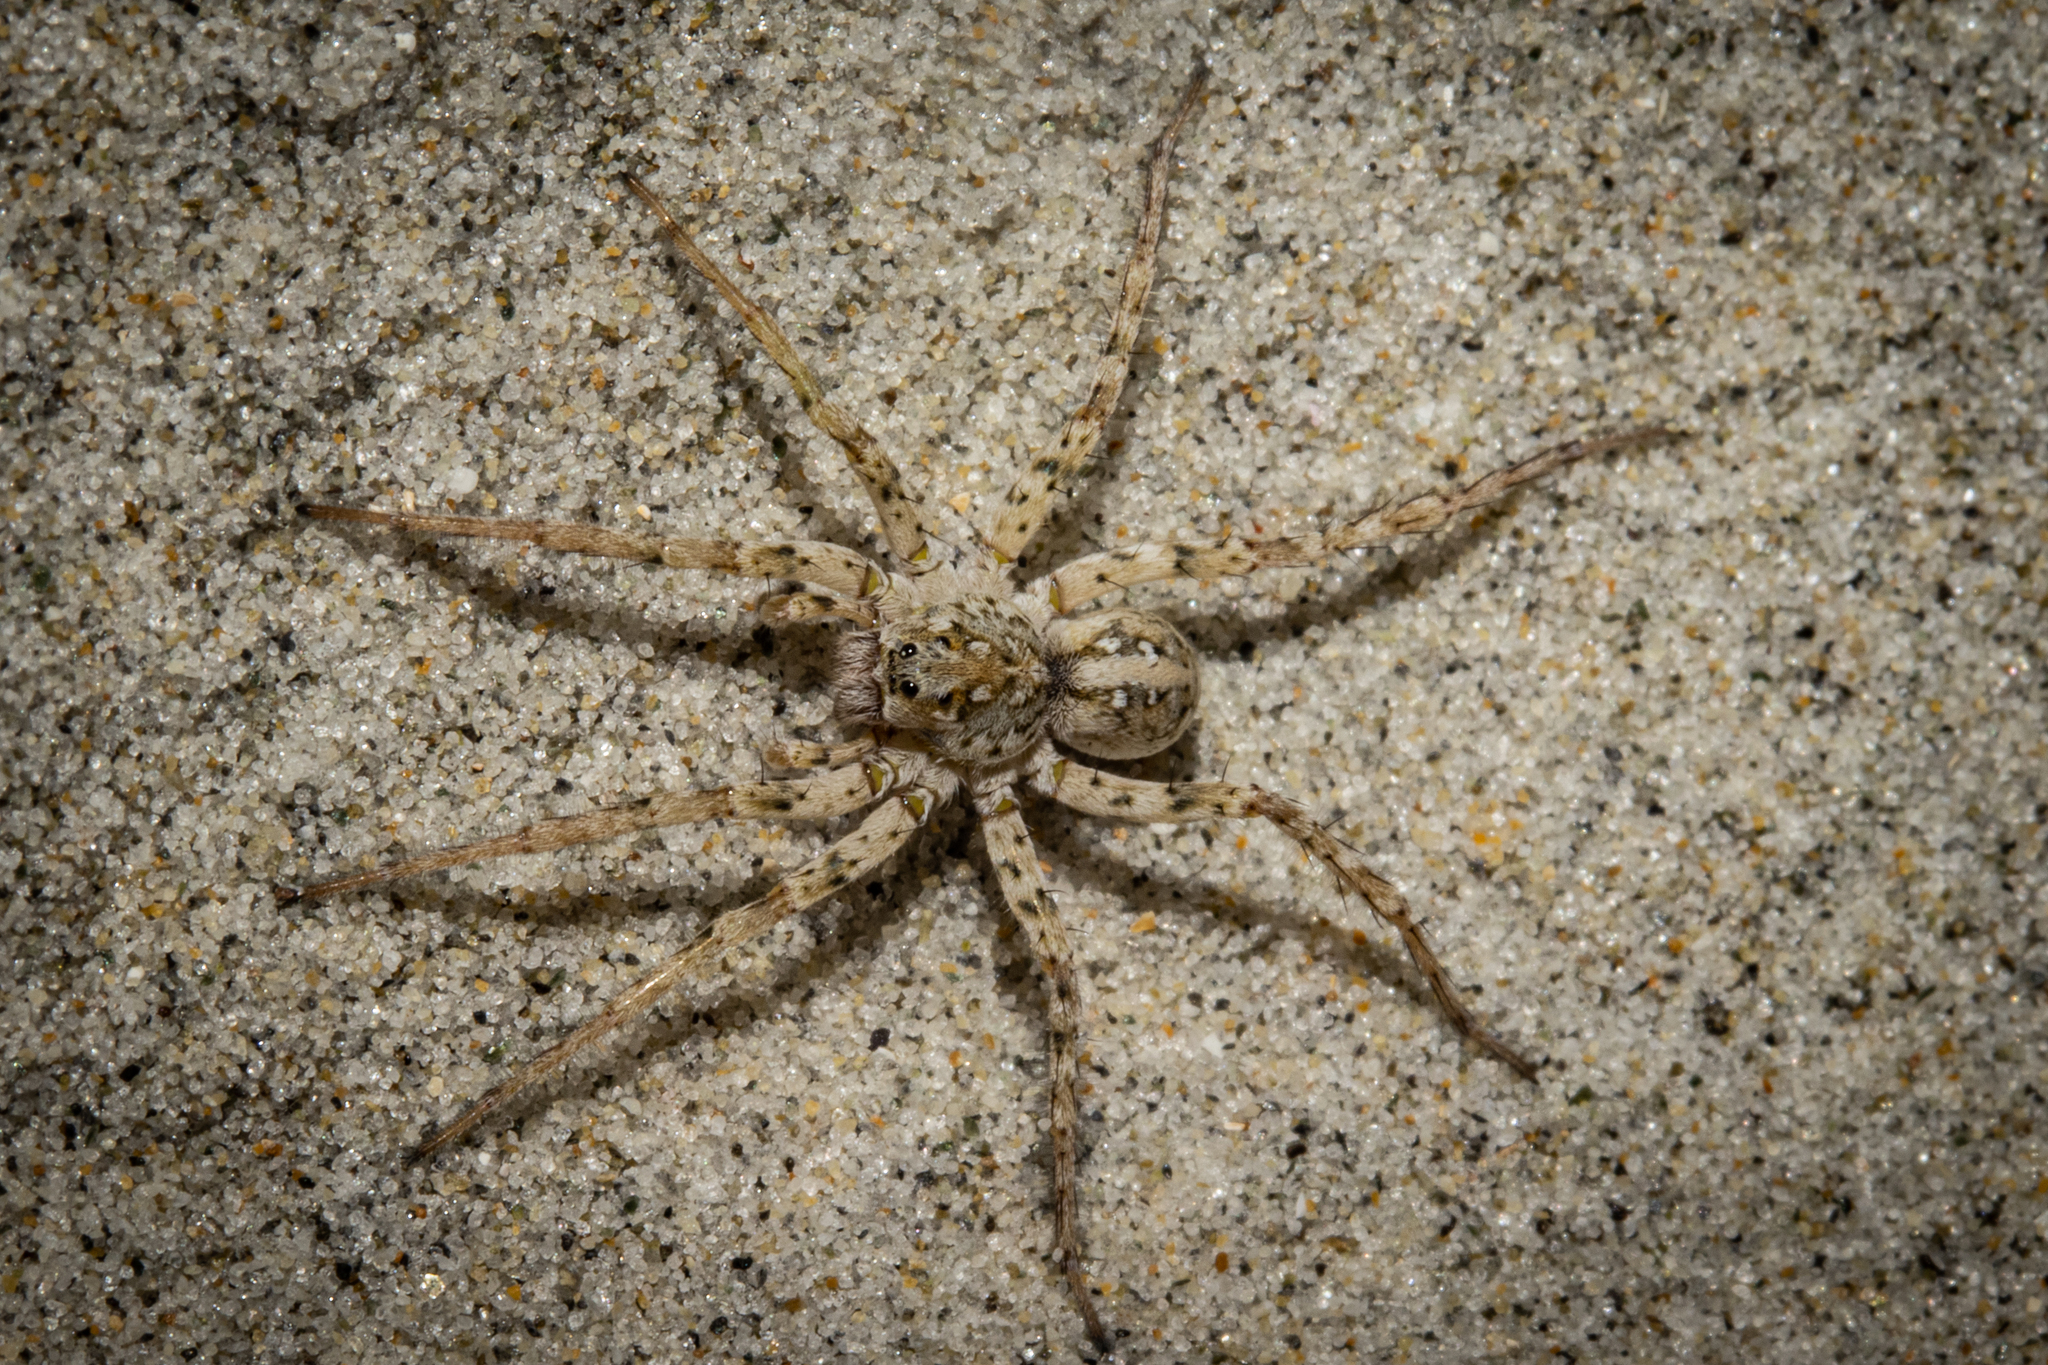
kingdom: Animalia
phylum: Arthropoda
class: Arachnida
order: Araneae
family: Lycosidae
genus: Anoteropsis
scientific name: Anoteropsis forsteri
